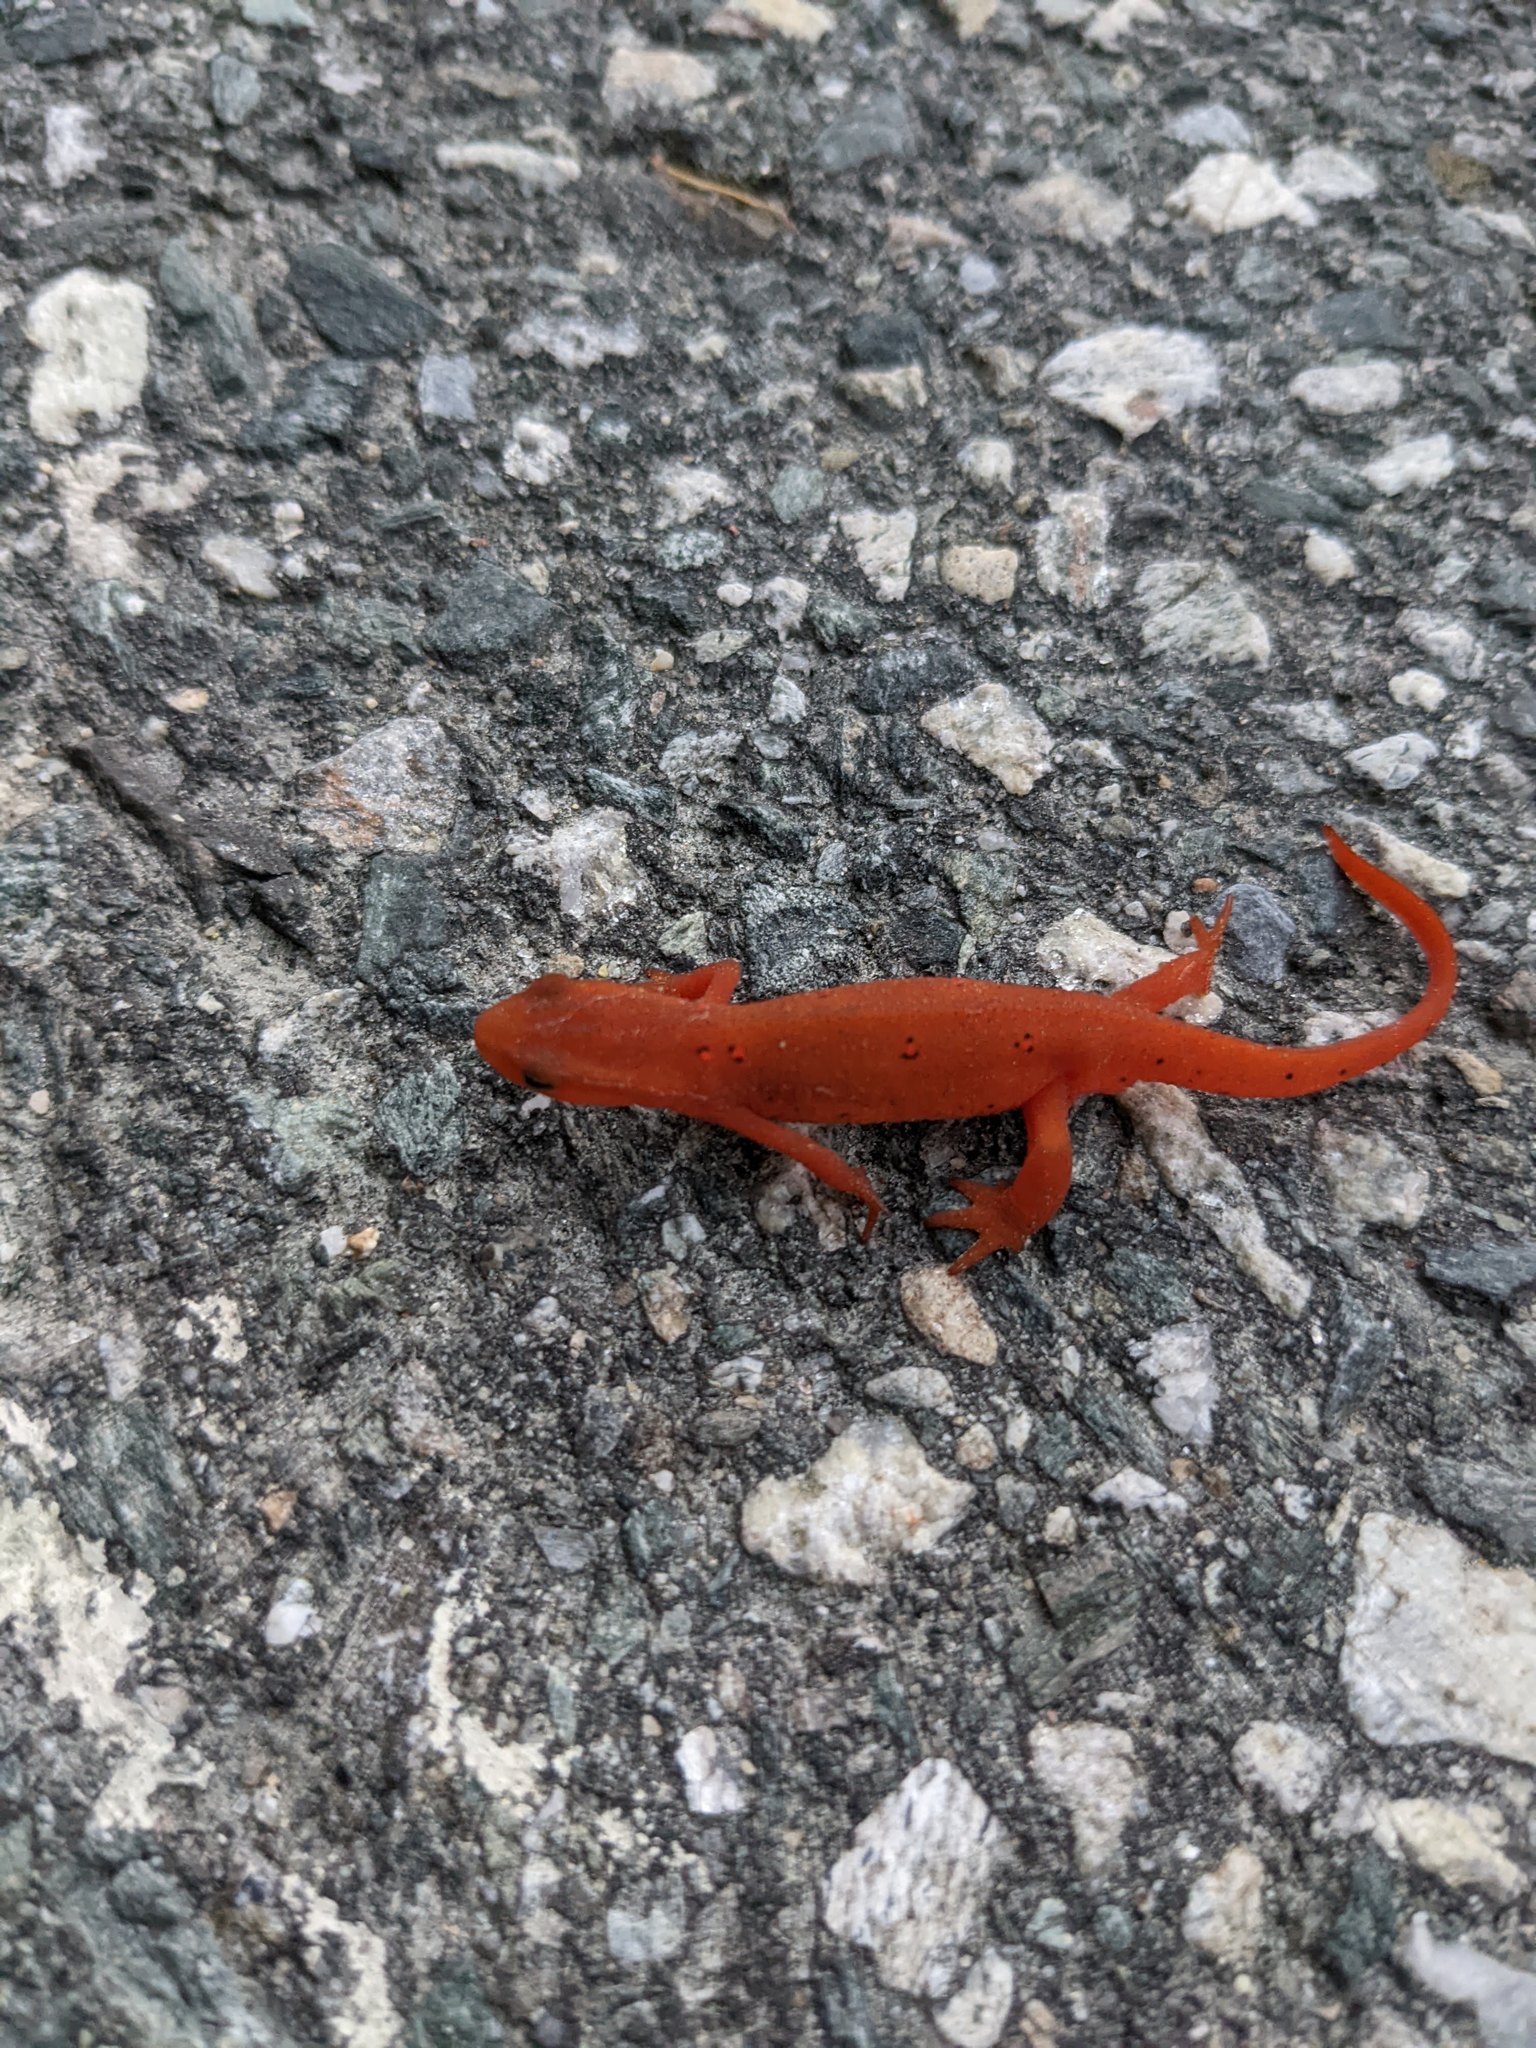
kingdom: Animalia
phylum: Chordata
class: Amphibia
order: Caudata
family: Salamandridae
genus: Notophthalmus
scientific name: Notophthalmus viridescens
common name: Eastern newt
